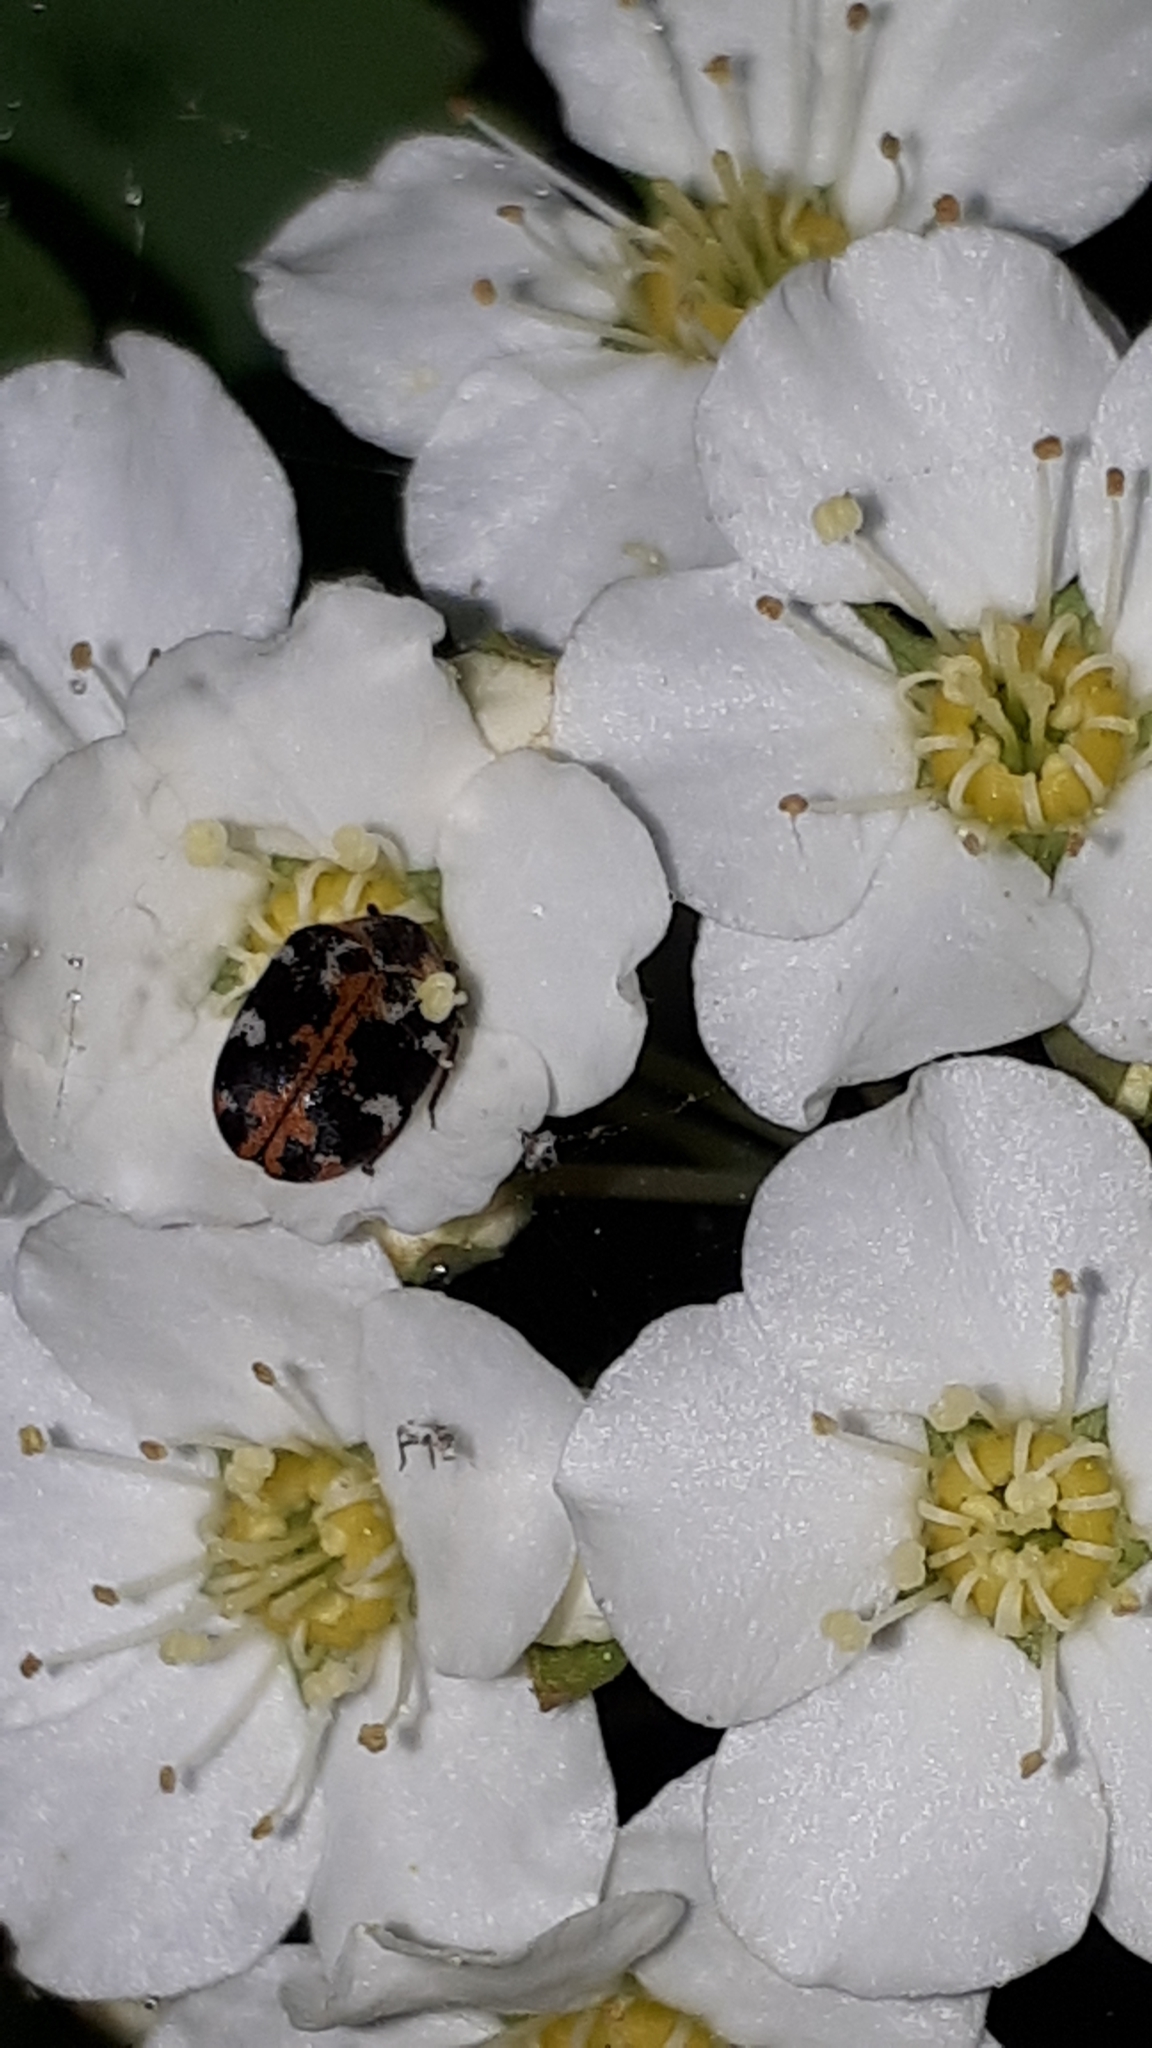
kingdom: Animalia
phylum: Arthropoda
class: Insecta
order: Coleoptera
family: Dermestidae
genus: Anthrenus
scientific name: Anthrenus scrophulariae
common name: Buffalo carpet beetle
